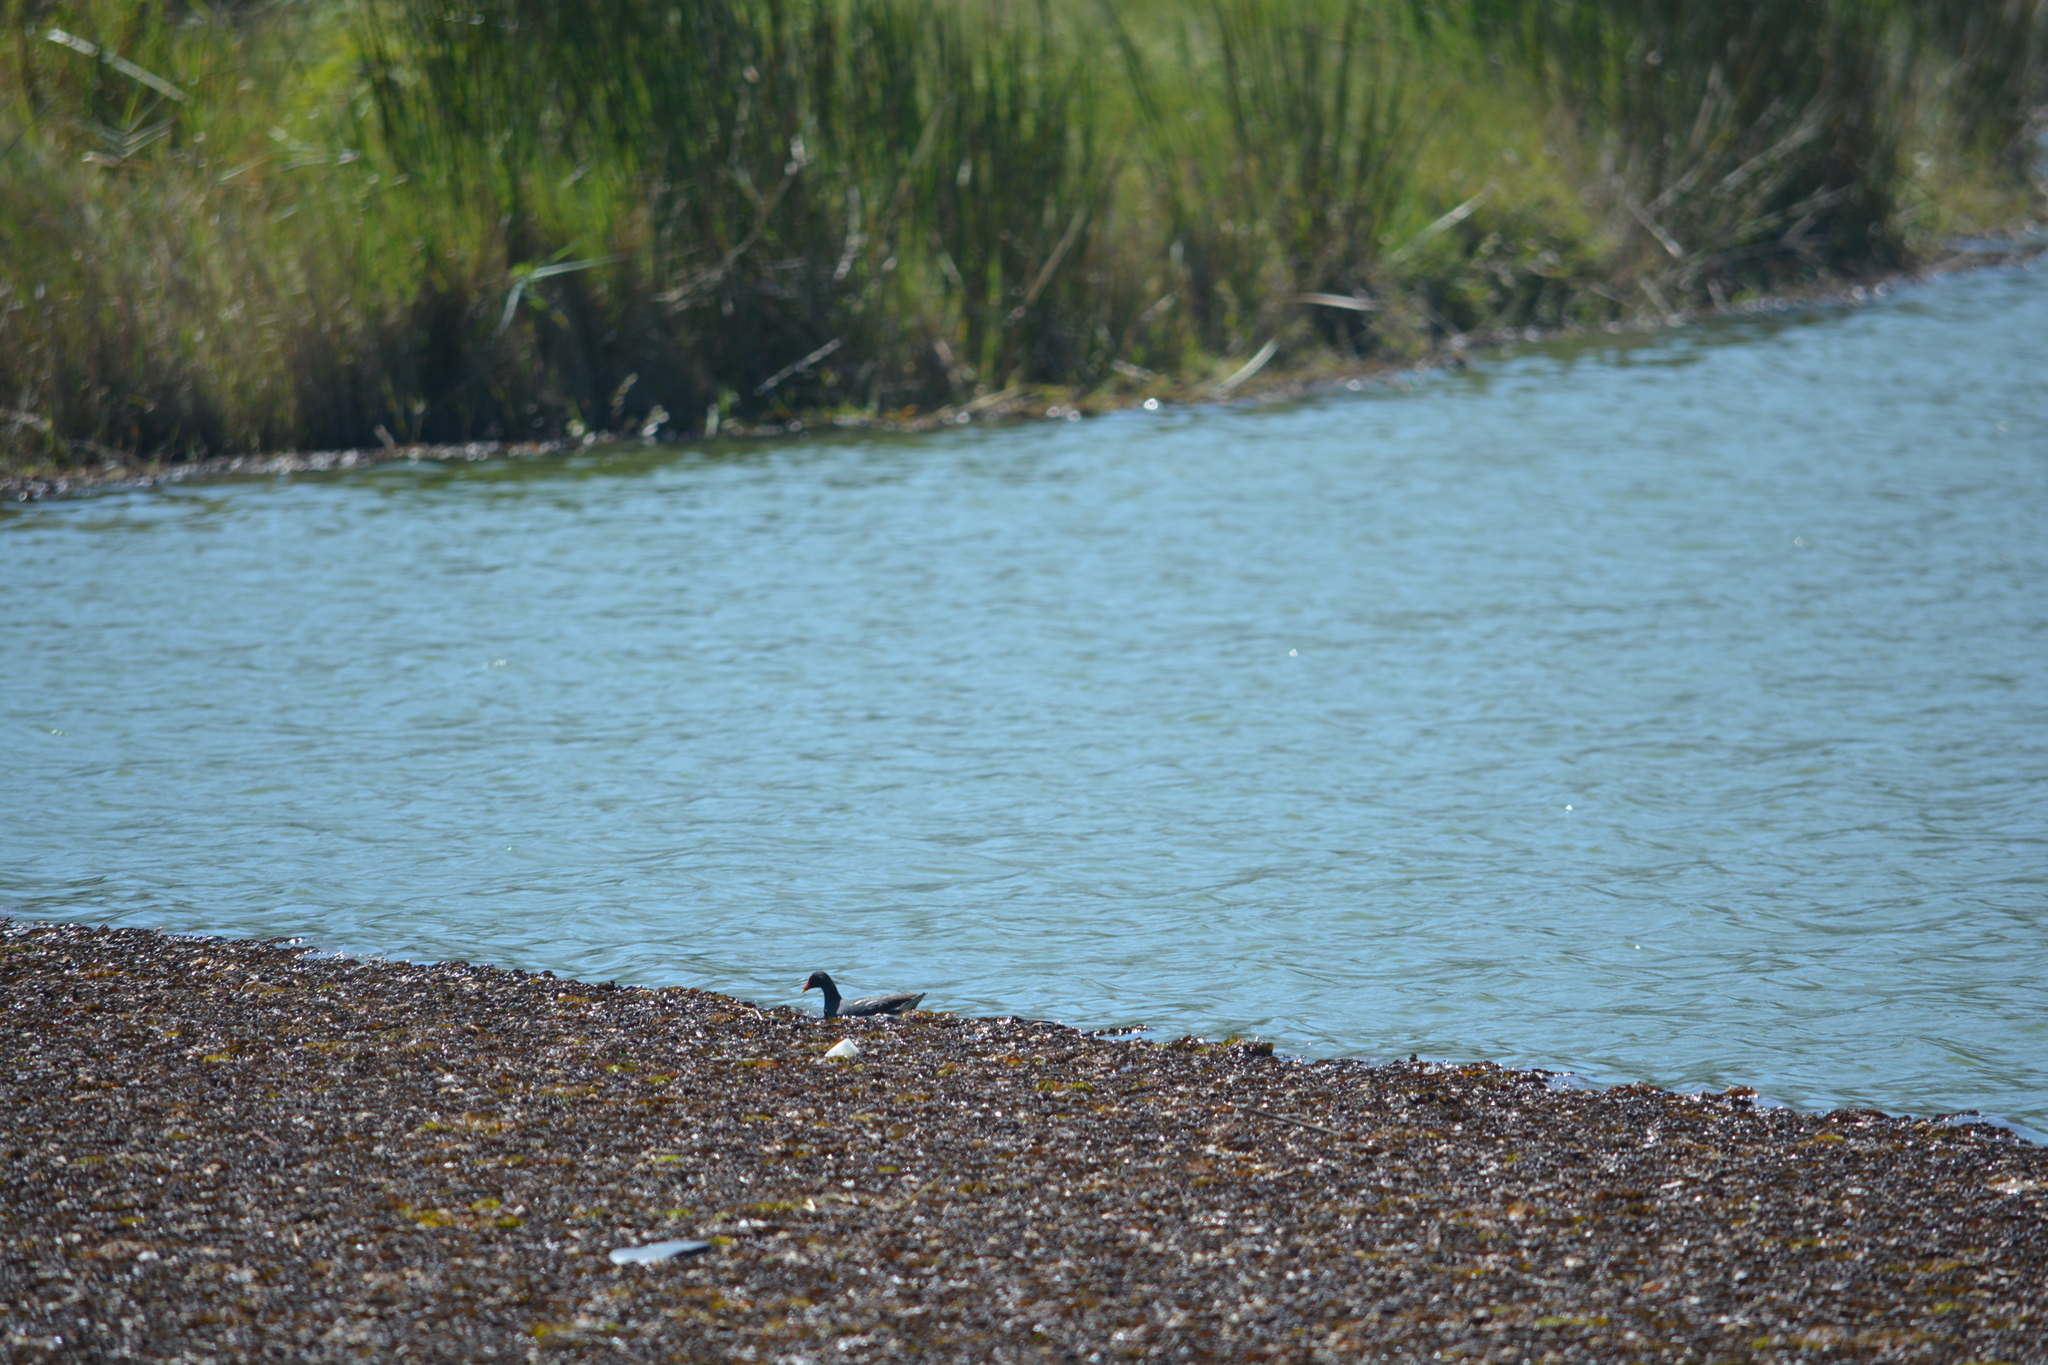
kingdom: Animalia
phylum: Chordata
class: Aves
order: Gruiformes
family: Rallidae
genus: Gallinula
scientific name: Gallinula chloropus
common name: Common moorhen
